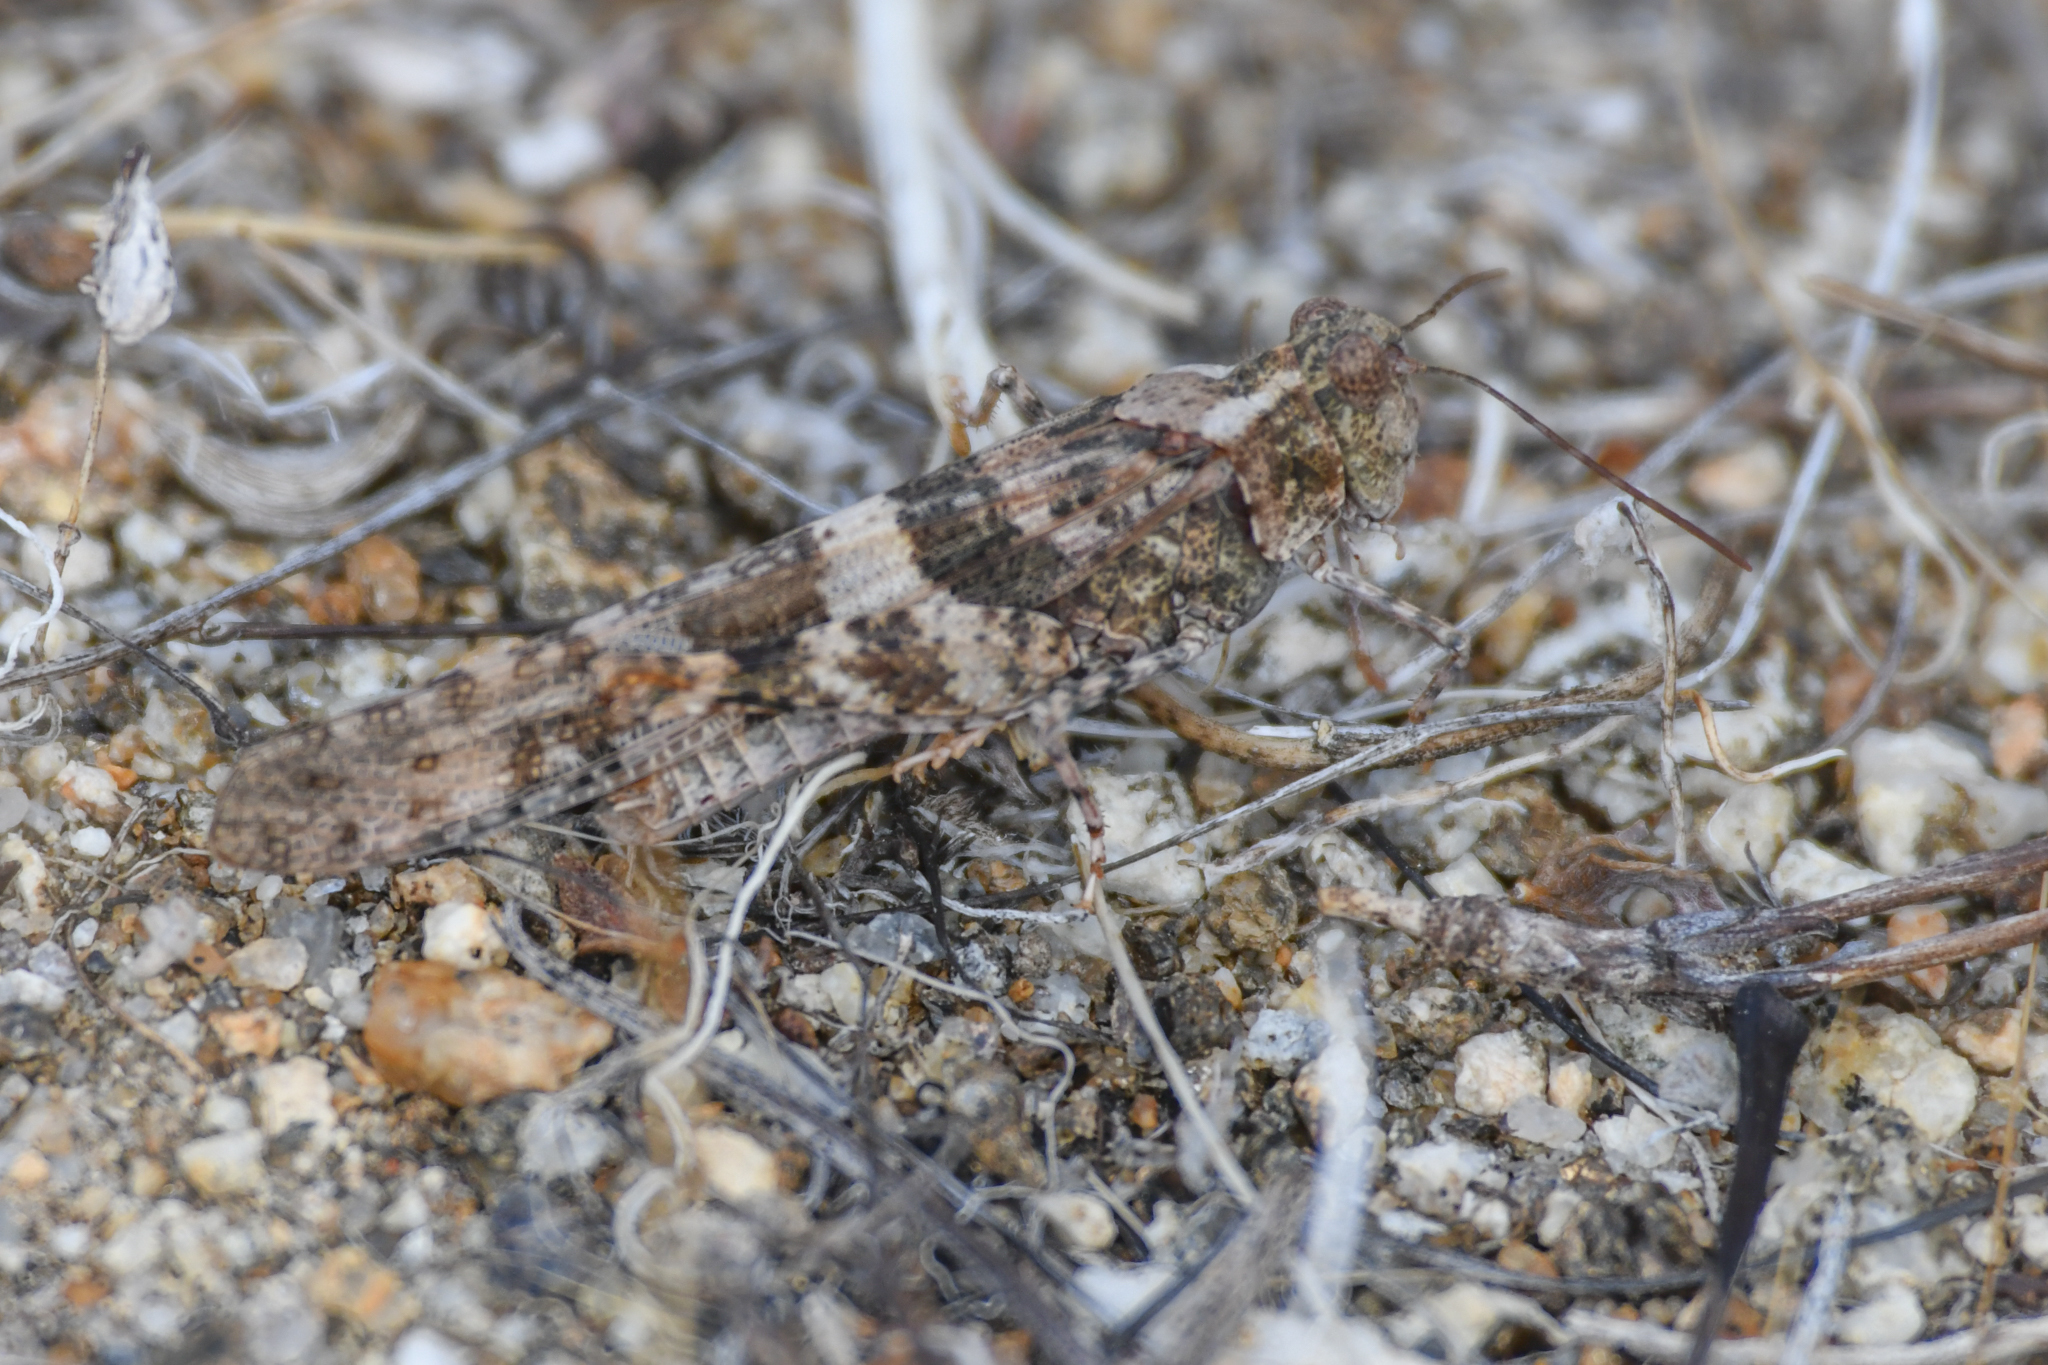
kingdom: Animalia
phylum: Arthropoda
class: Insecta
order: Orthoptera
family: Acrididae
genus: Trimerotropis
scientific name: Trimerotropis pallidipennis
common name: Pallid-winged grasshopper
